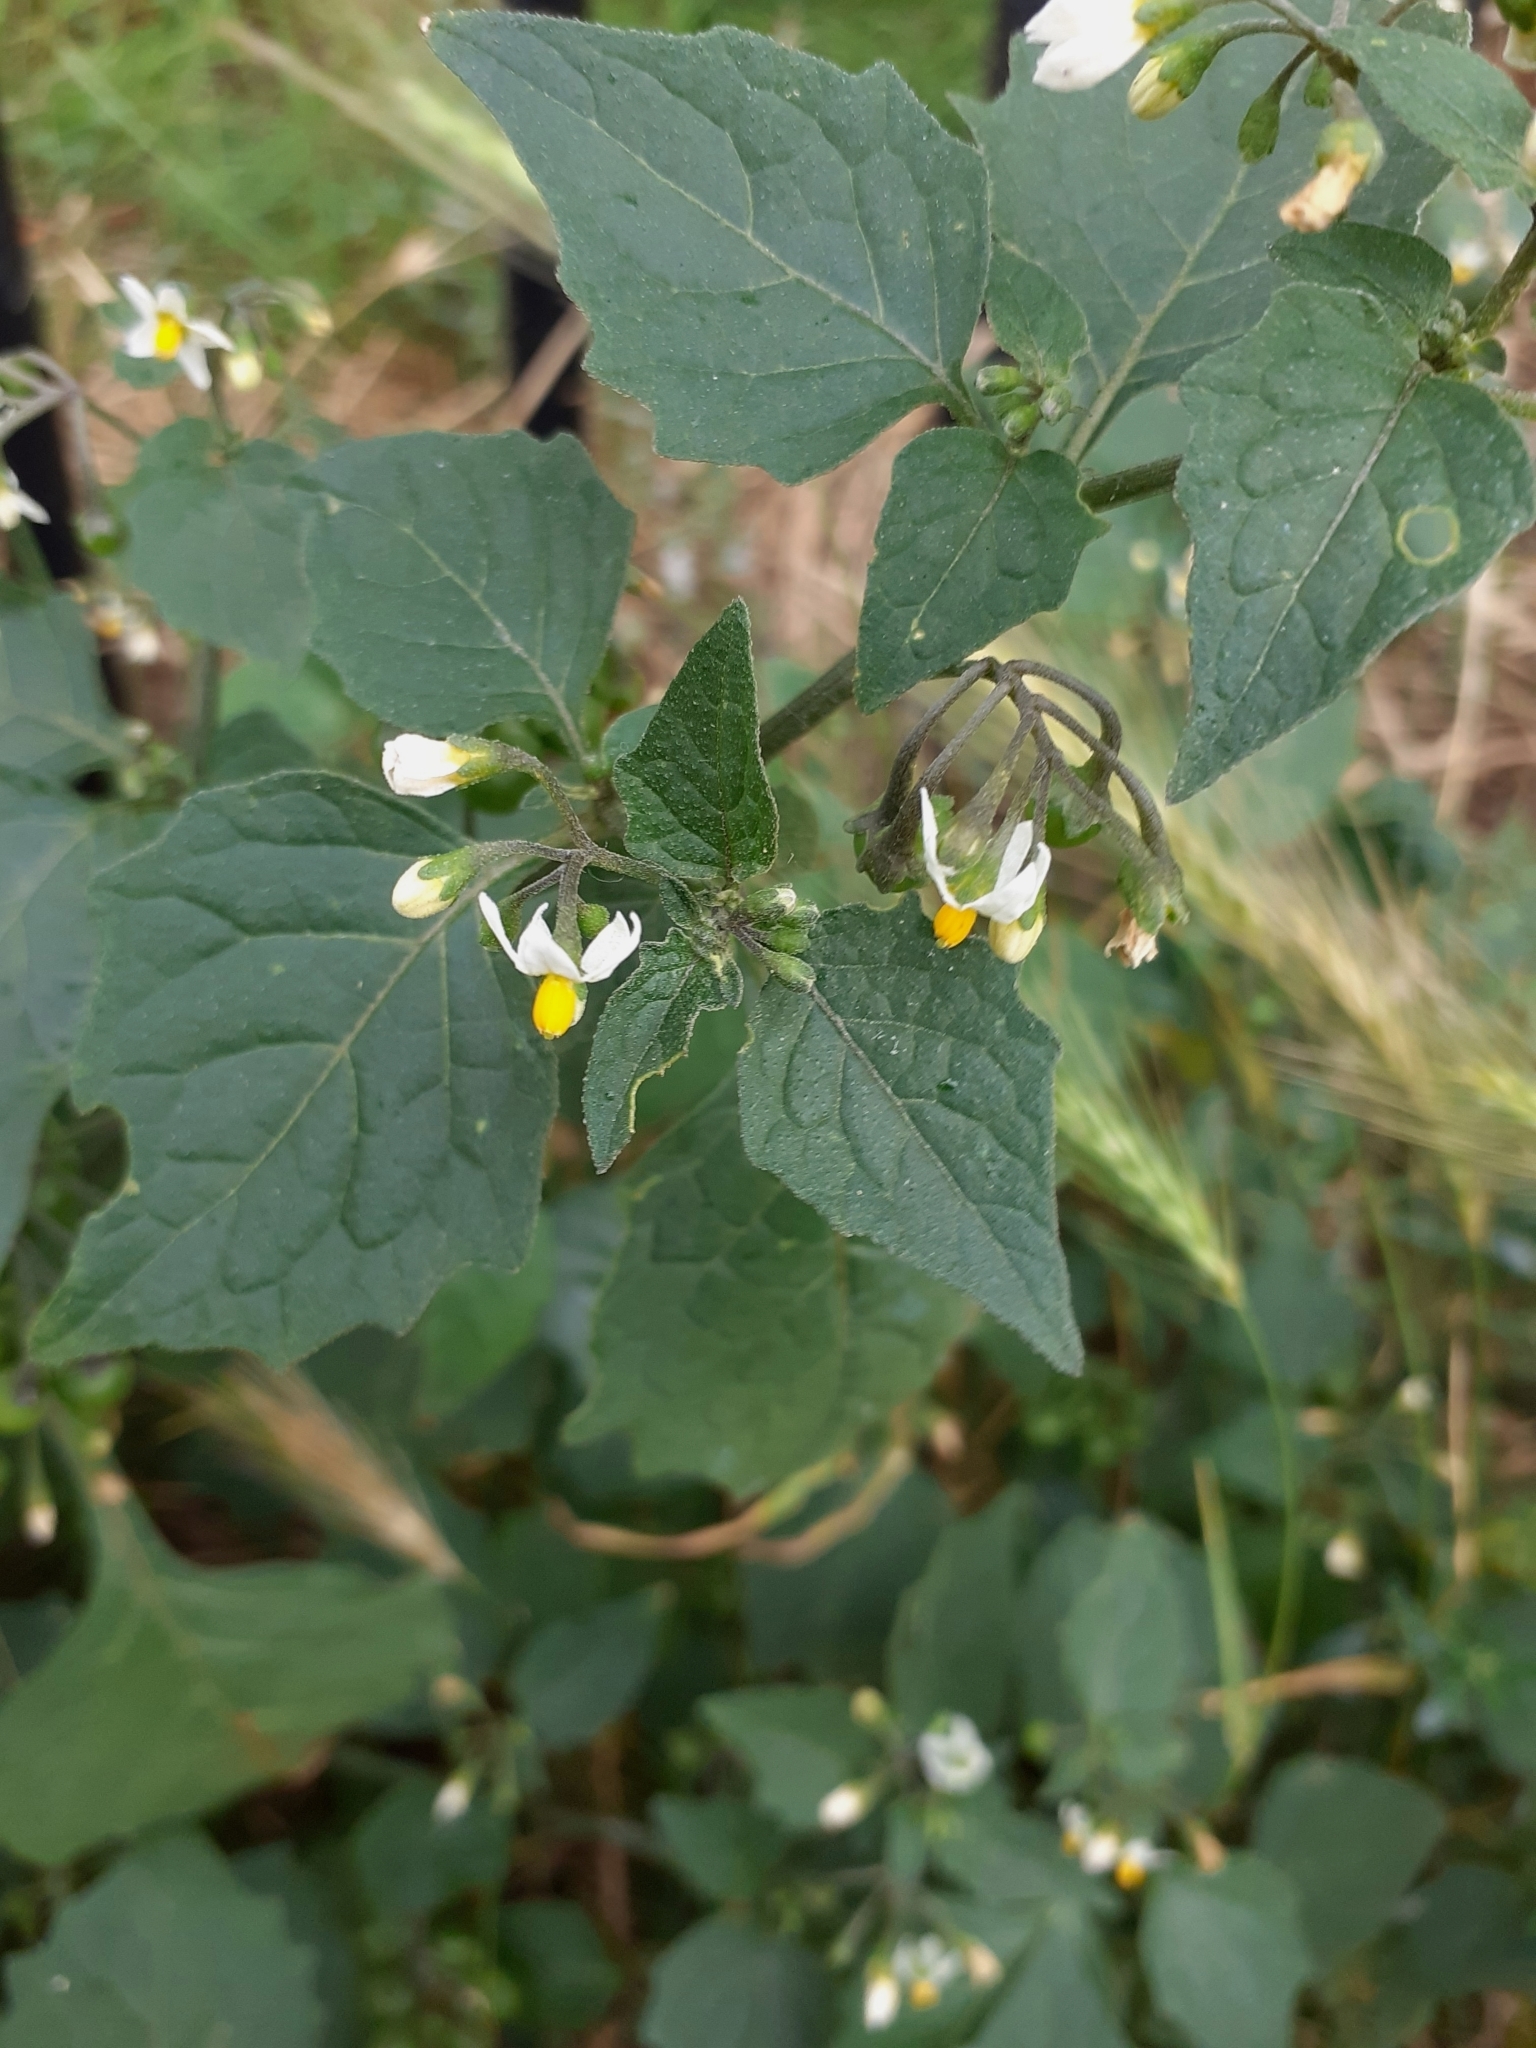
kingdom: Plantae
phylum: Tracheophyta
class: Magnoliopsida
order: Solanales
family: Solanaceae
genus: Solanum
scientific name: Solanum nigrum
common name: Black nightshade
